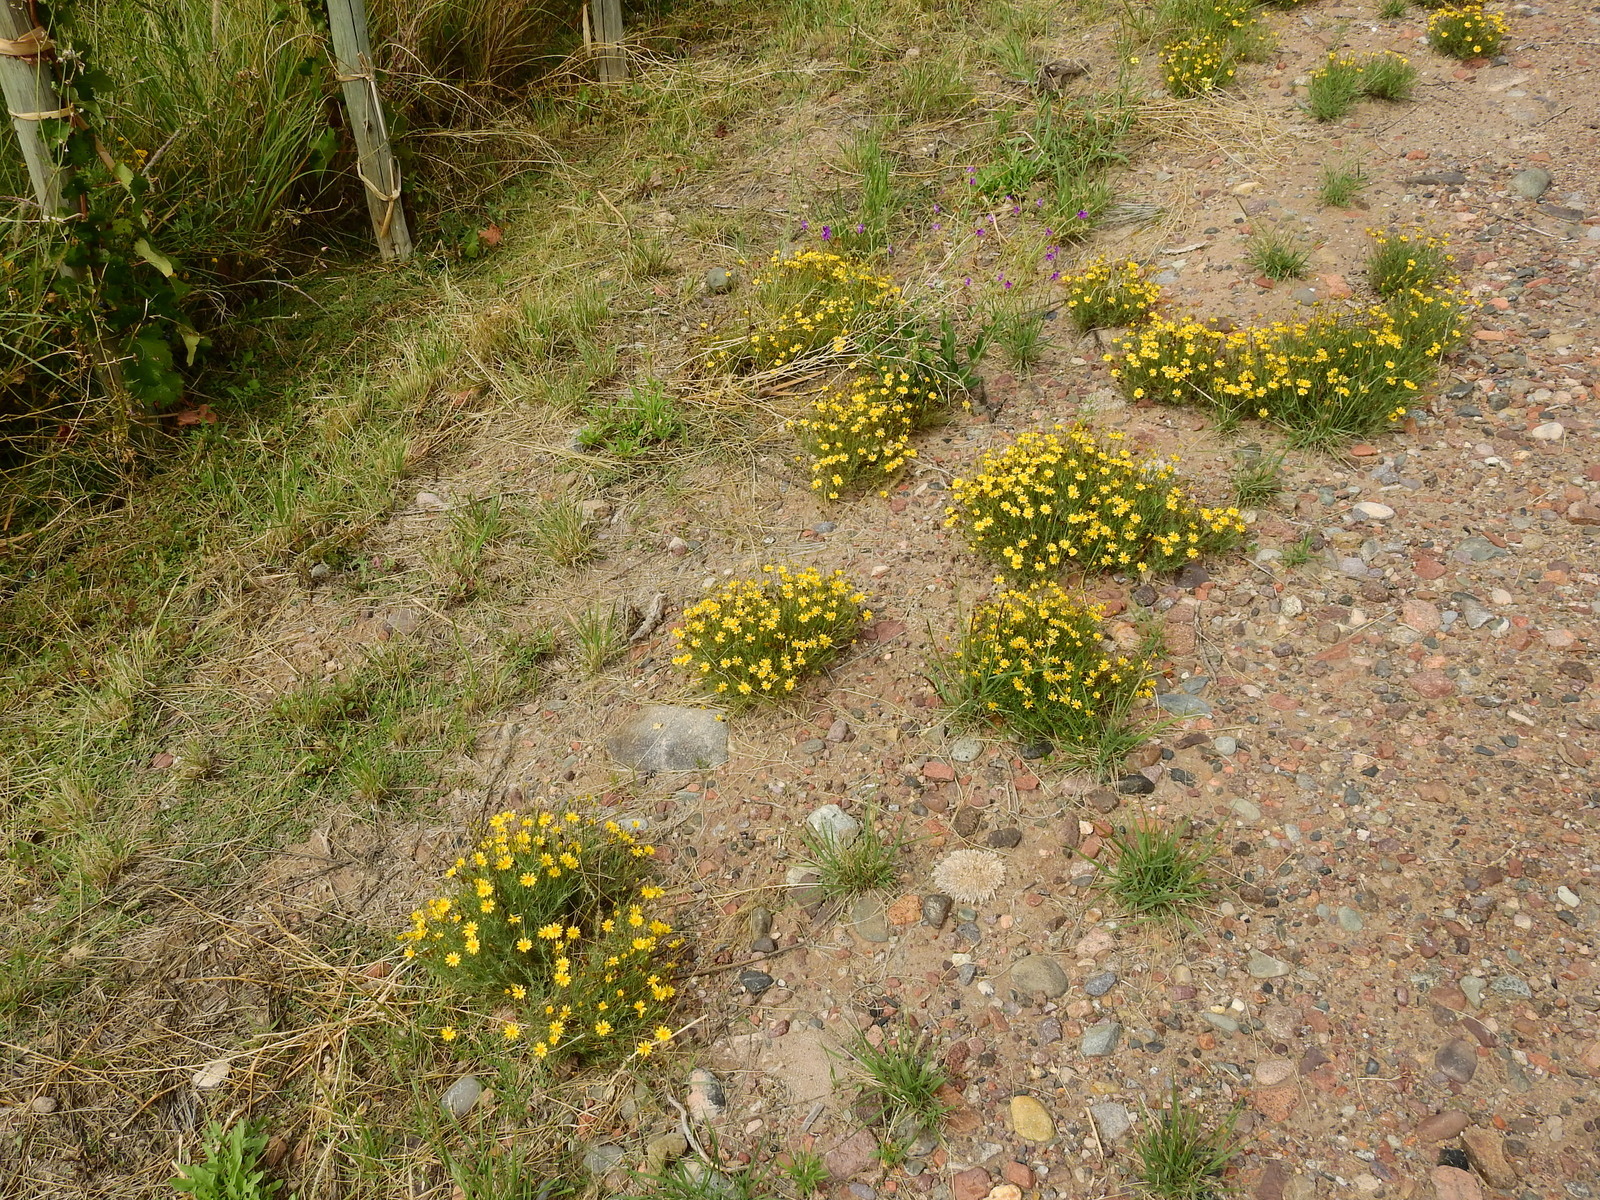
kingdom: Plantae
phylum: Tracheophyta
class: Magnoliopsida
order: Asterales
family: Asteraceae
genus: Thymophylla
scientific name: Thymophylla pentachaeta
